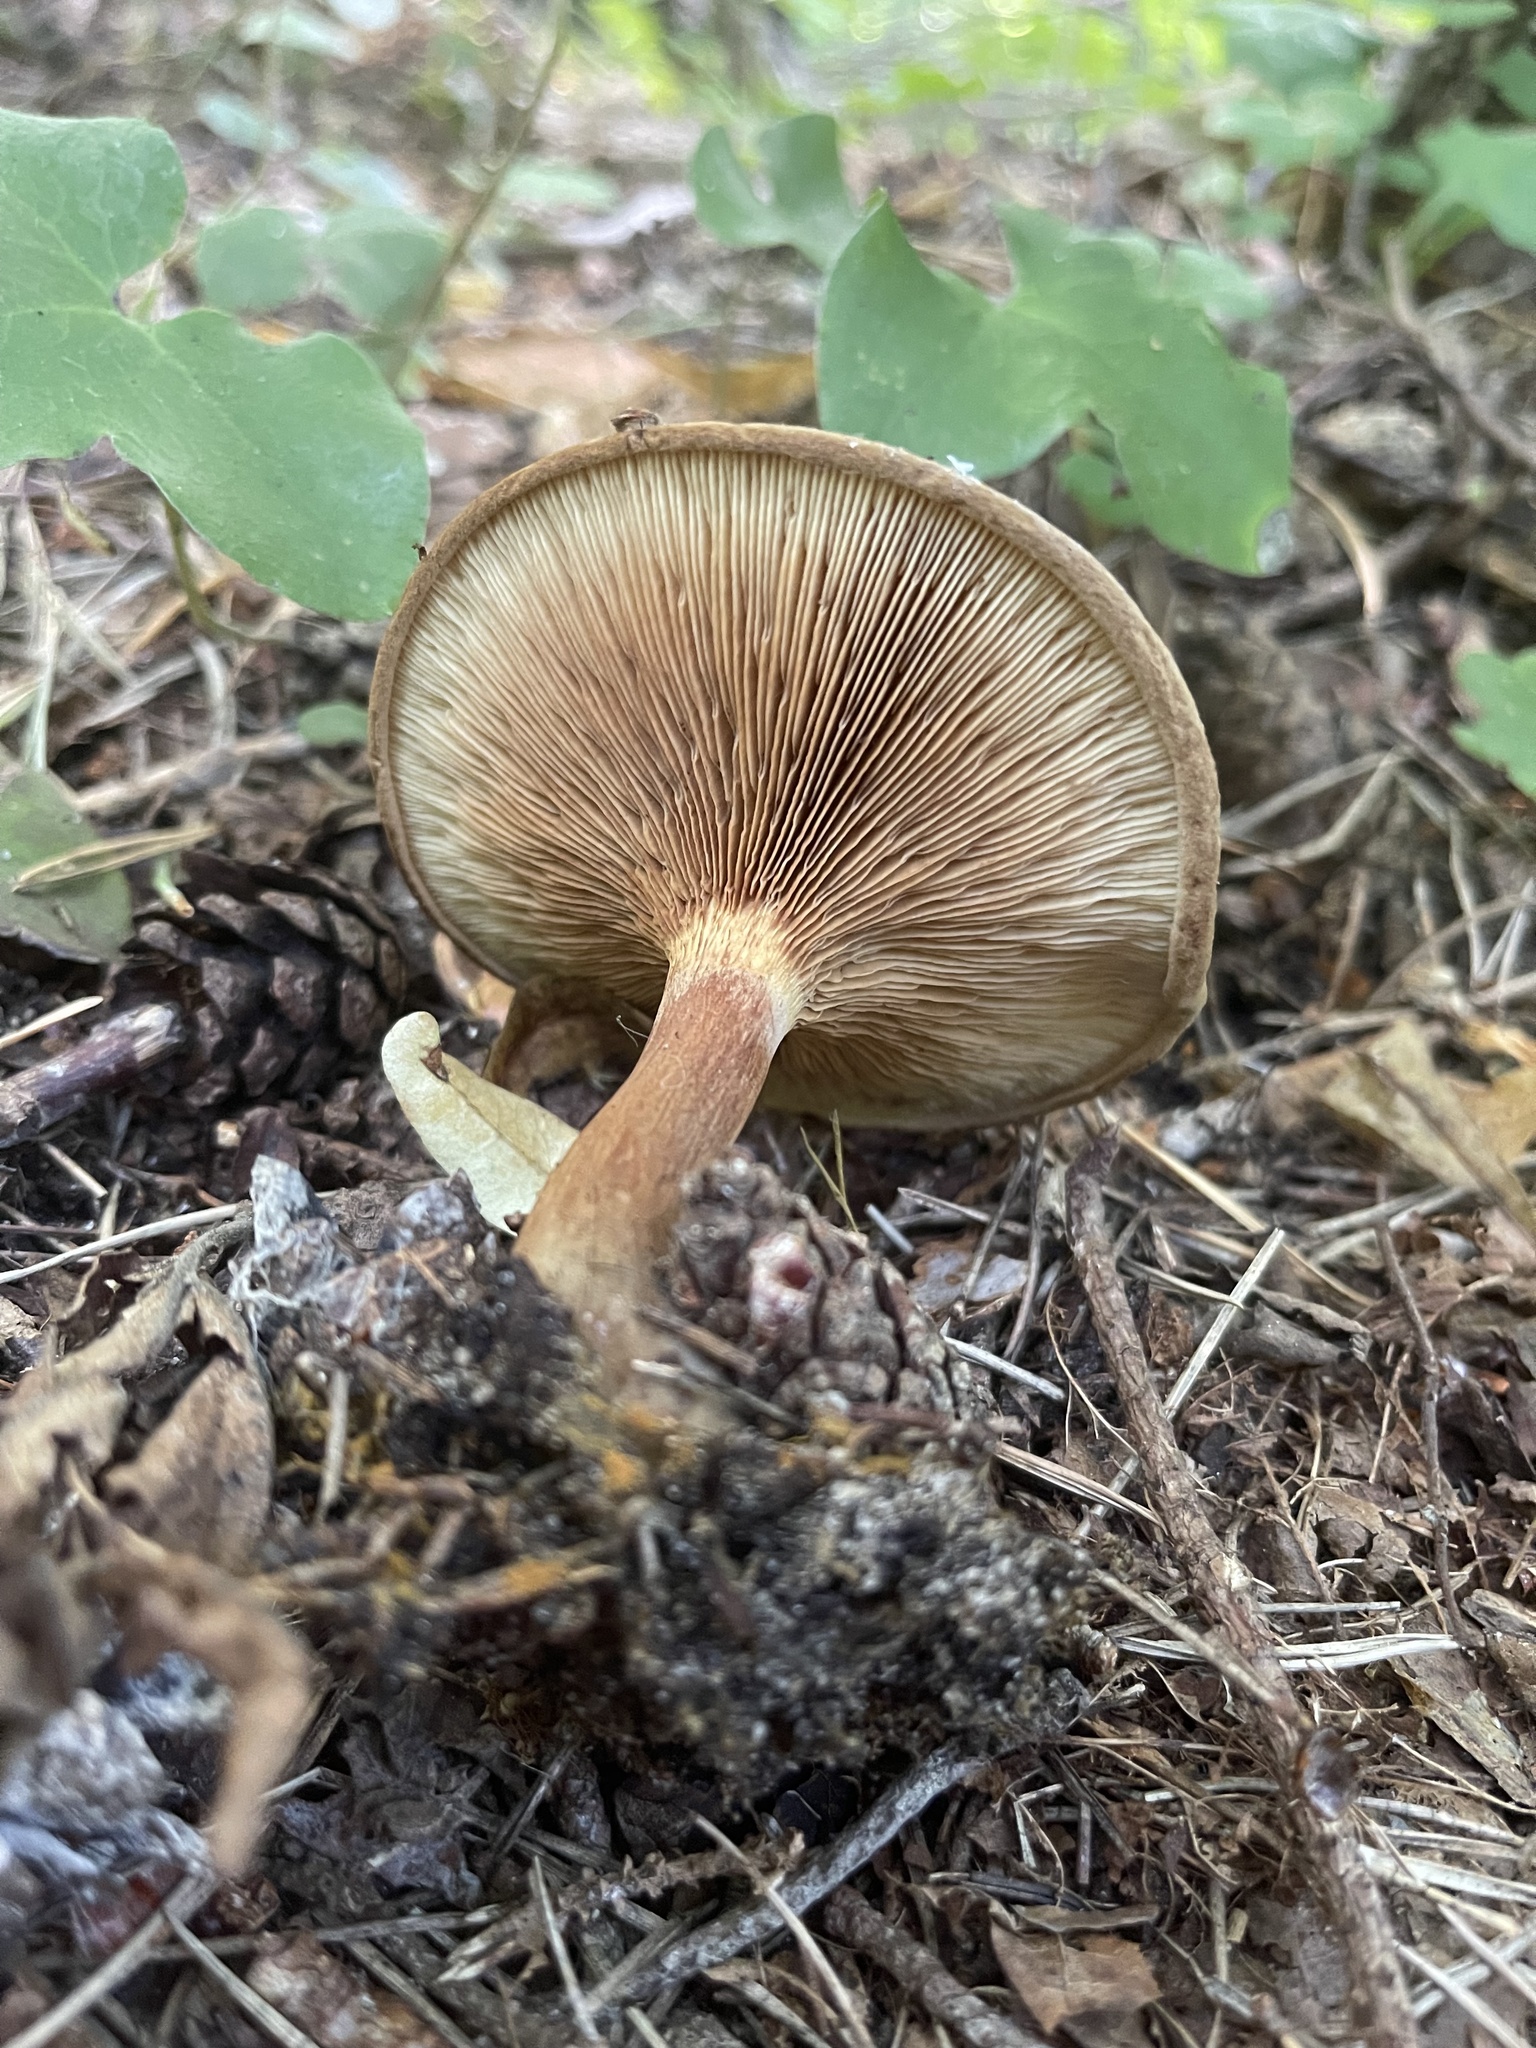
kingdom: Fungi
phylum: Basidiomycota
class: Agaricomycetes
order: Boletales
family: Paxillaceae
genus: Paxillus
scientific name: Paxillus involutus
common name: Brown roll rim
